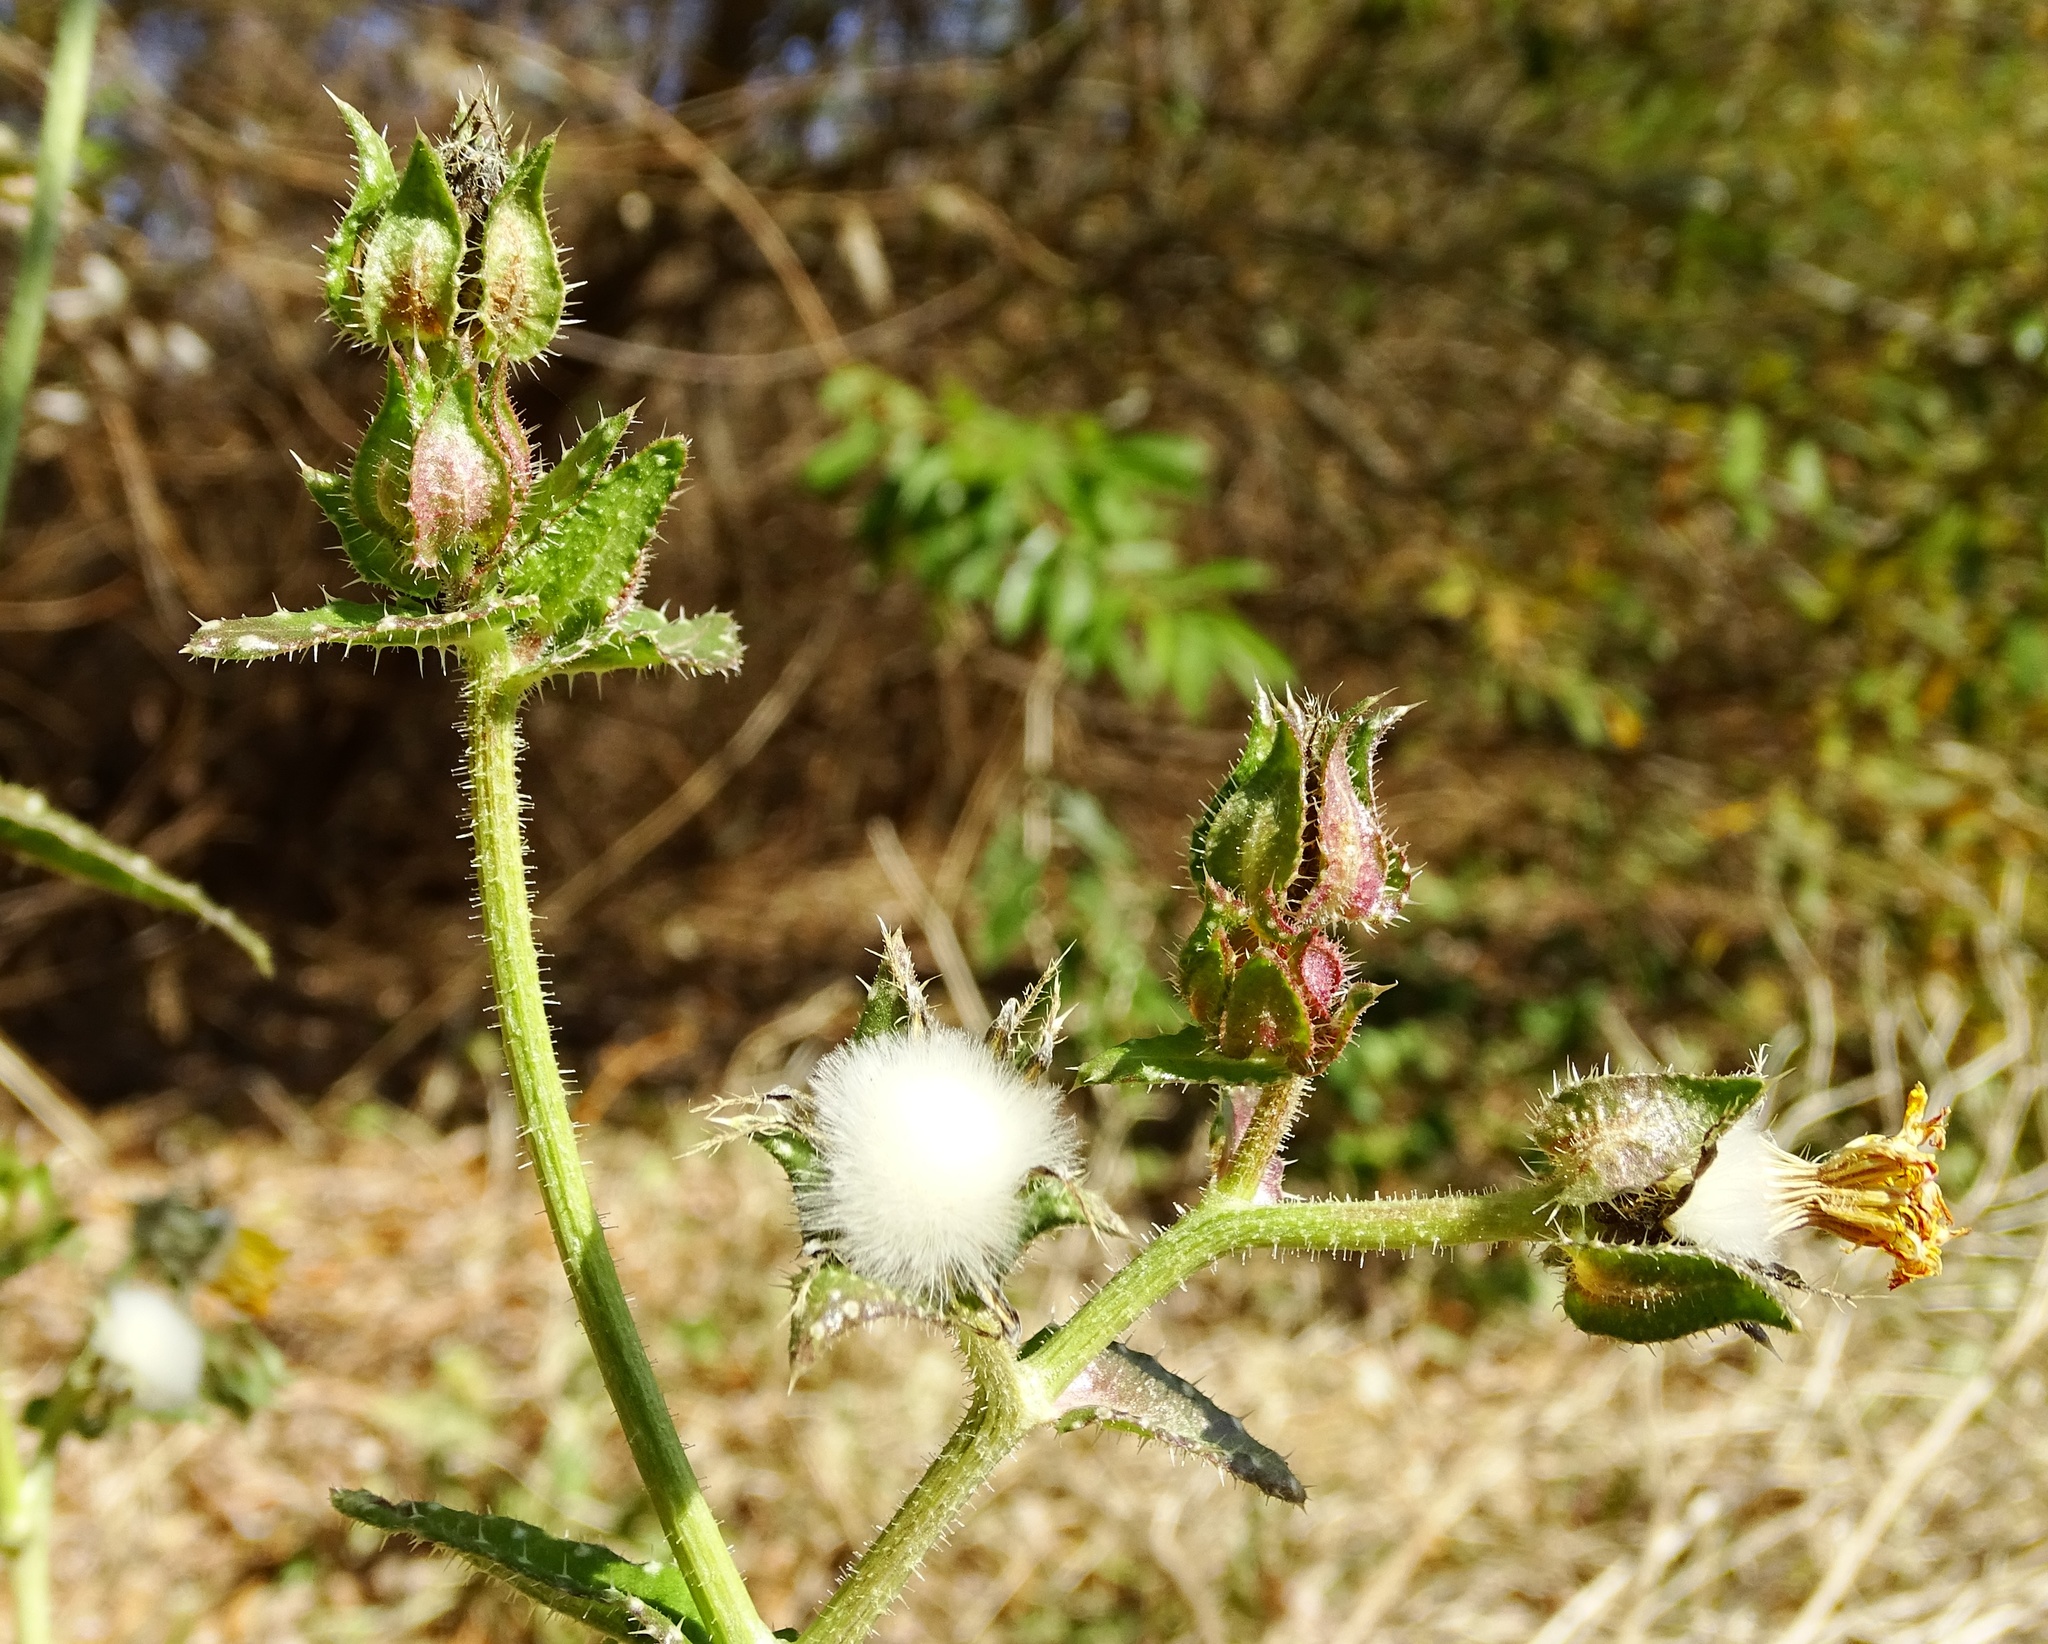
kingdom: Plantae
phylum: Tracheophyta
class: Magnoliopsida
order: Asterales
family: Asteraceae
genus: Helminthotheca
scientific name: Helminthotheca echioides
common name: Ox-tongue
